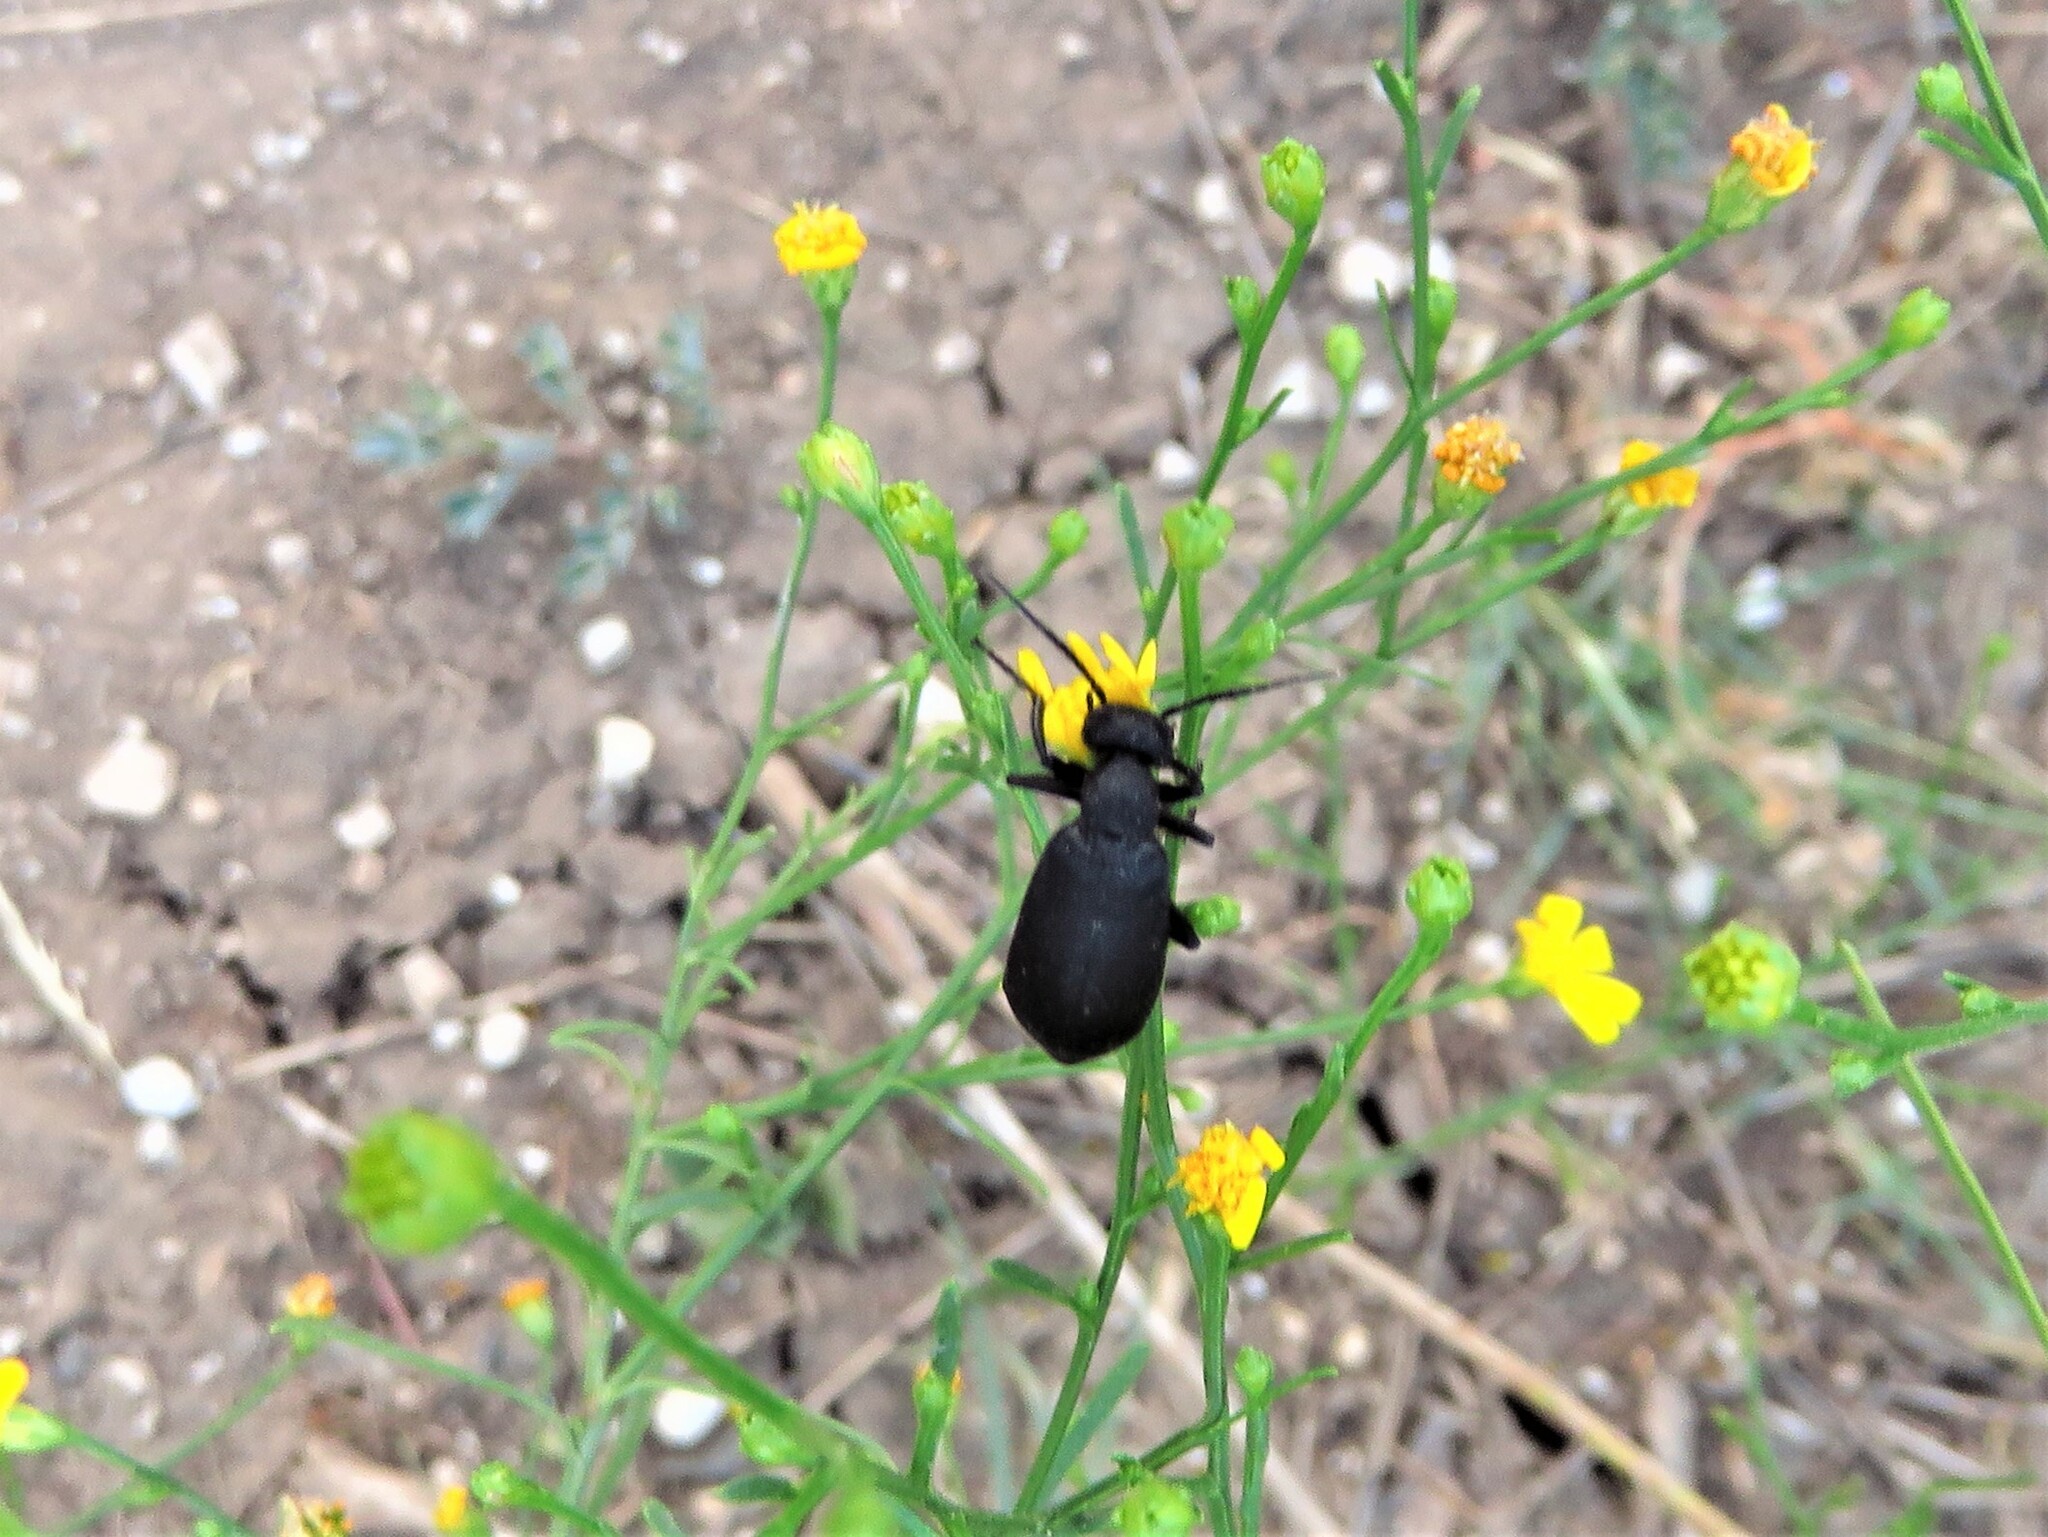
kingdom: Animalia
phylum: Arthropoda
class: Insecta
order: Coleoptera
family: Meloidae
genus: Epicauta
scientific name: Epicauta pensylvanica
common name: Black blister beetle
